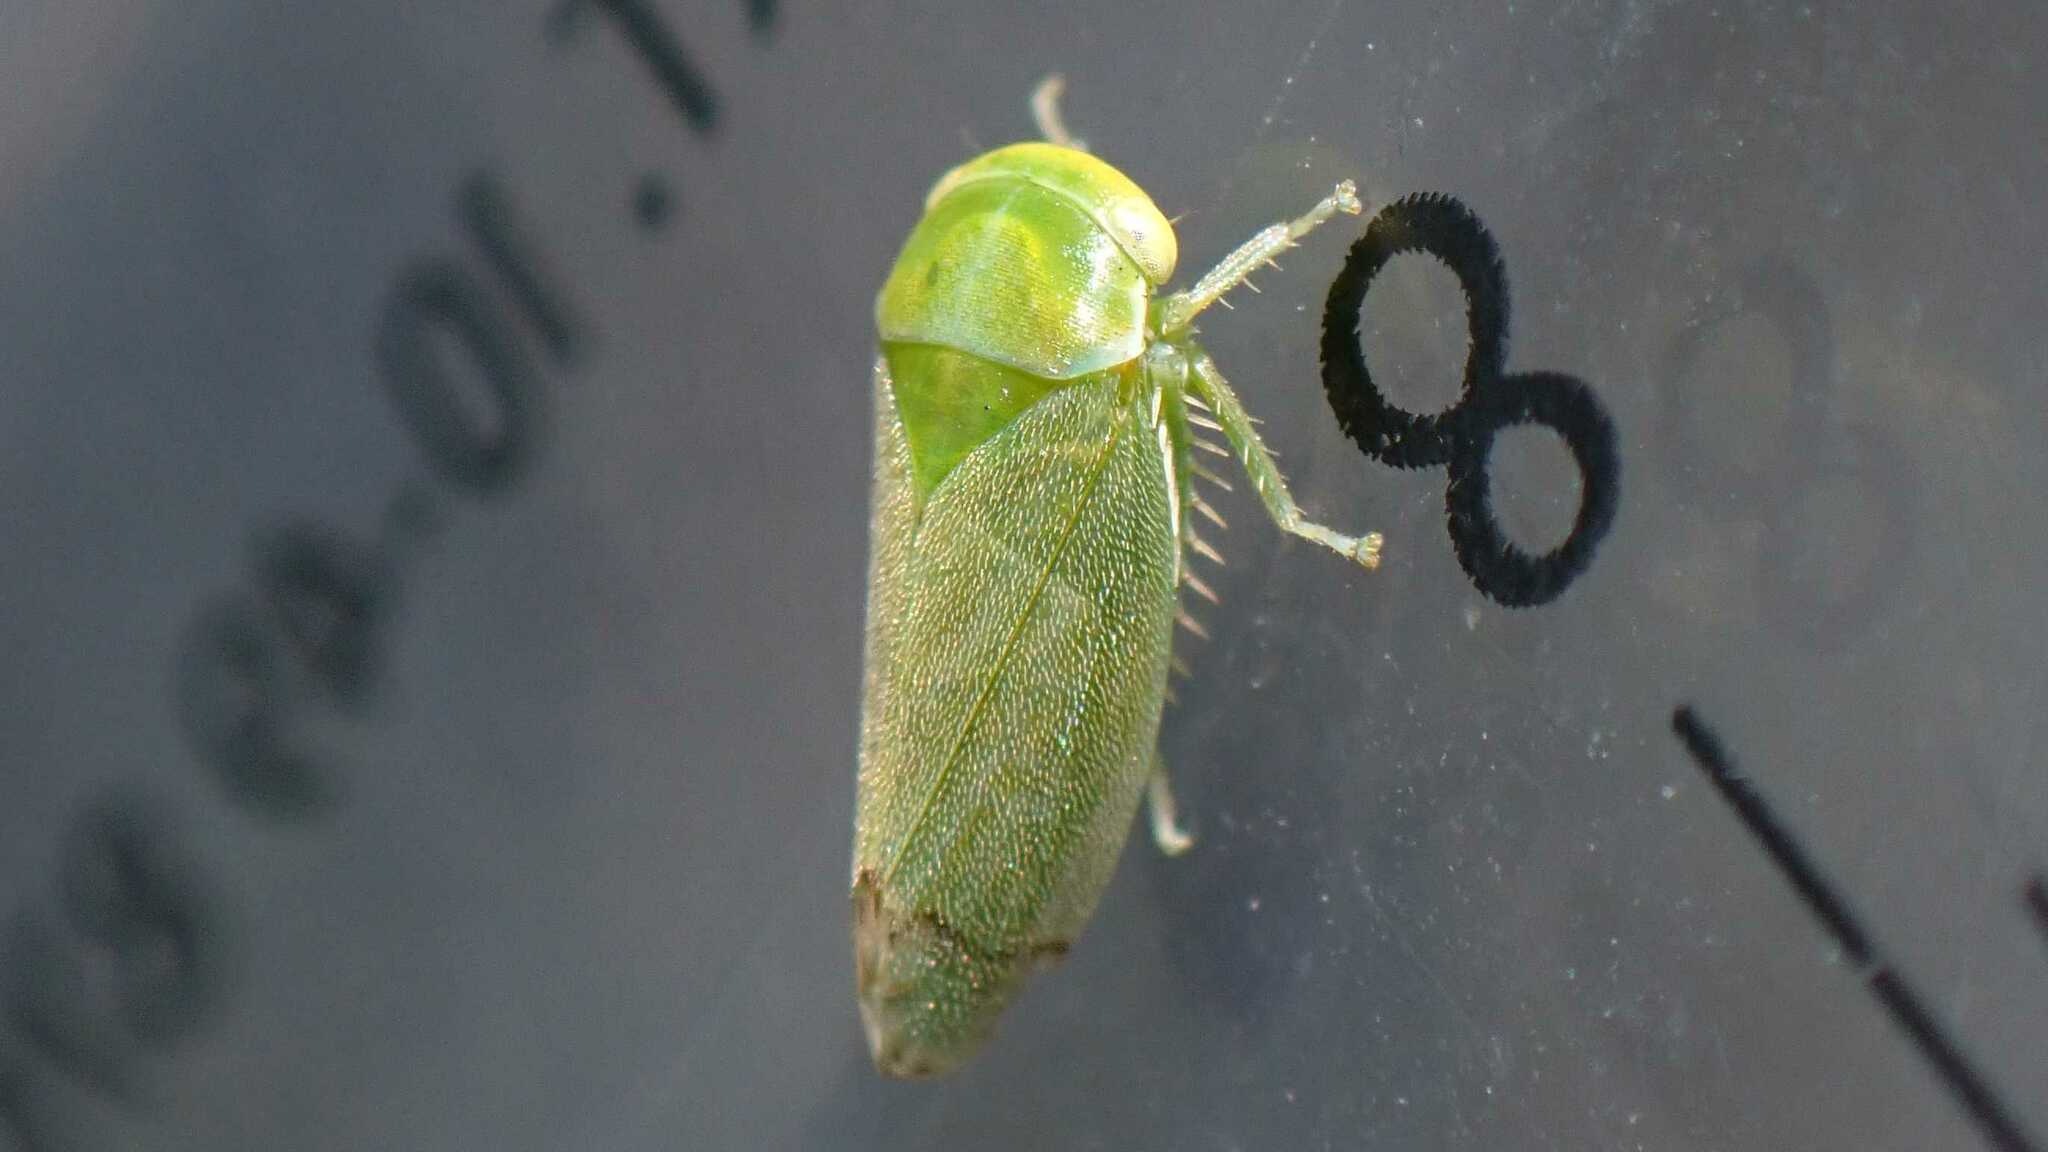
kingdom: Animalia
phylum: Arthropoda
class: Insecta
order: Hemiptera
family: Cicadellidae
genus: Stragania
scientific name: Stragania apicalis
